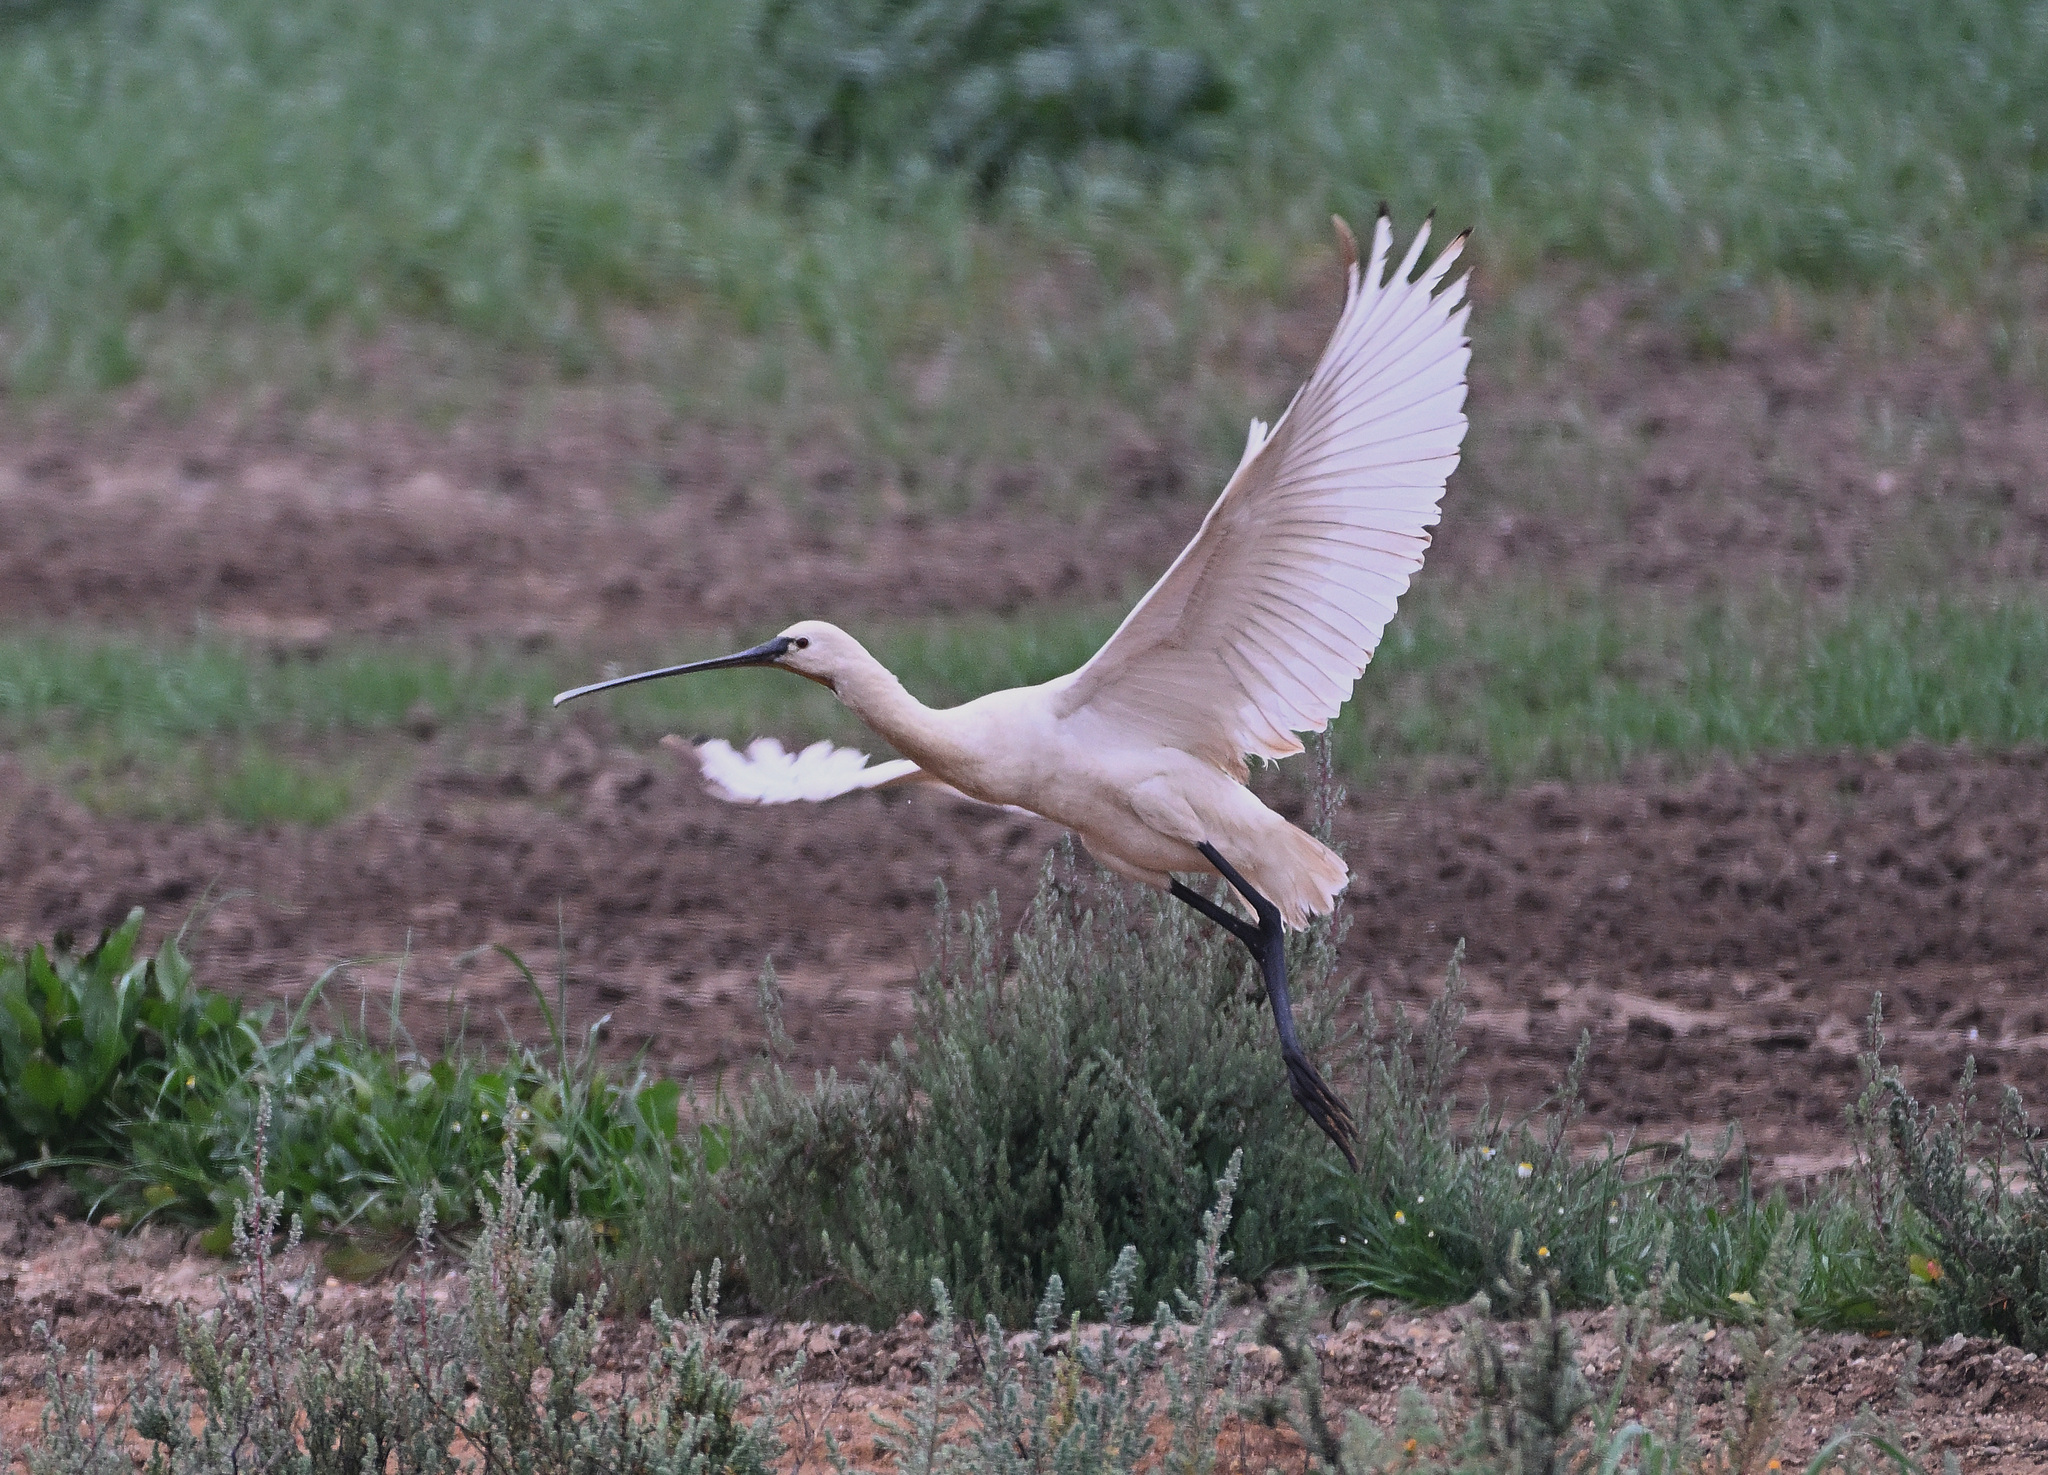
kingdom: Animalia
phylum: Chordata
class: Aves
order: Pelecaniformes
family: Threskiornithidae
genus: Platalea
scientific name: Platalea leucorodia
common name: Eurasian spoonbill
